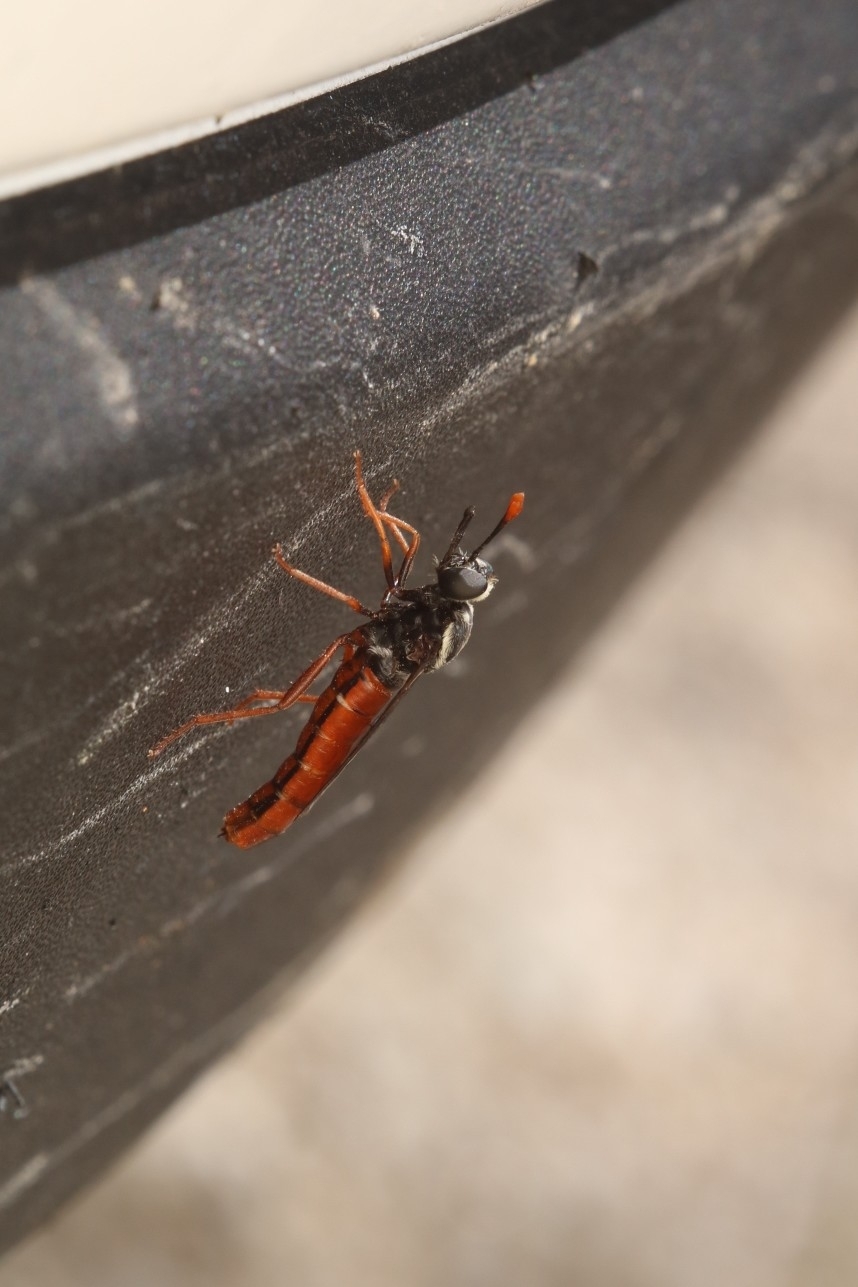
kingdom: Animalia
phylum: Arthropoda
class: Insecta
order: Diptera
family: Mydidae
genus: Pseudonomoneura
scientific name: Pseudonomoneura californica
